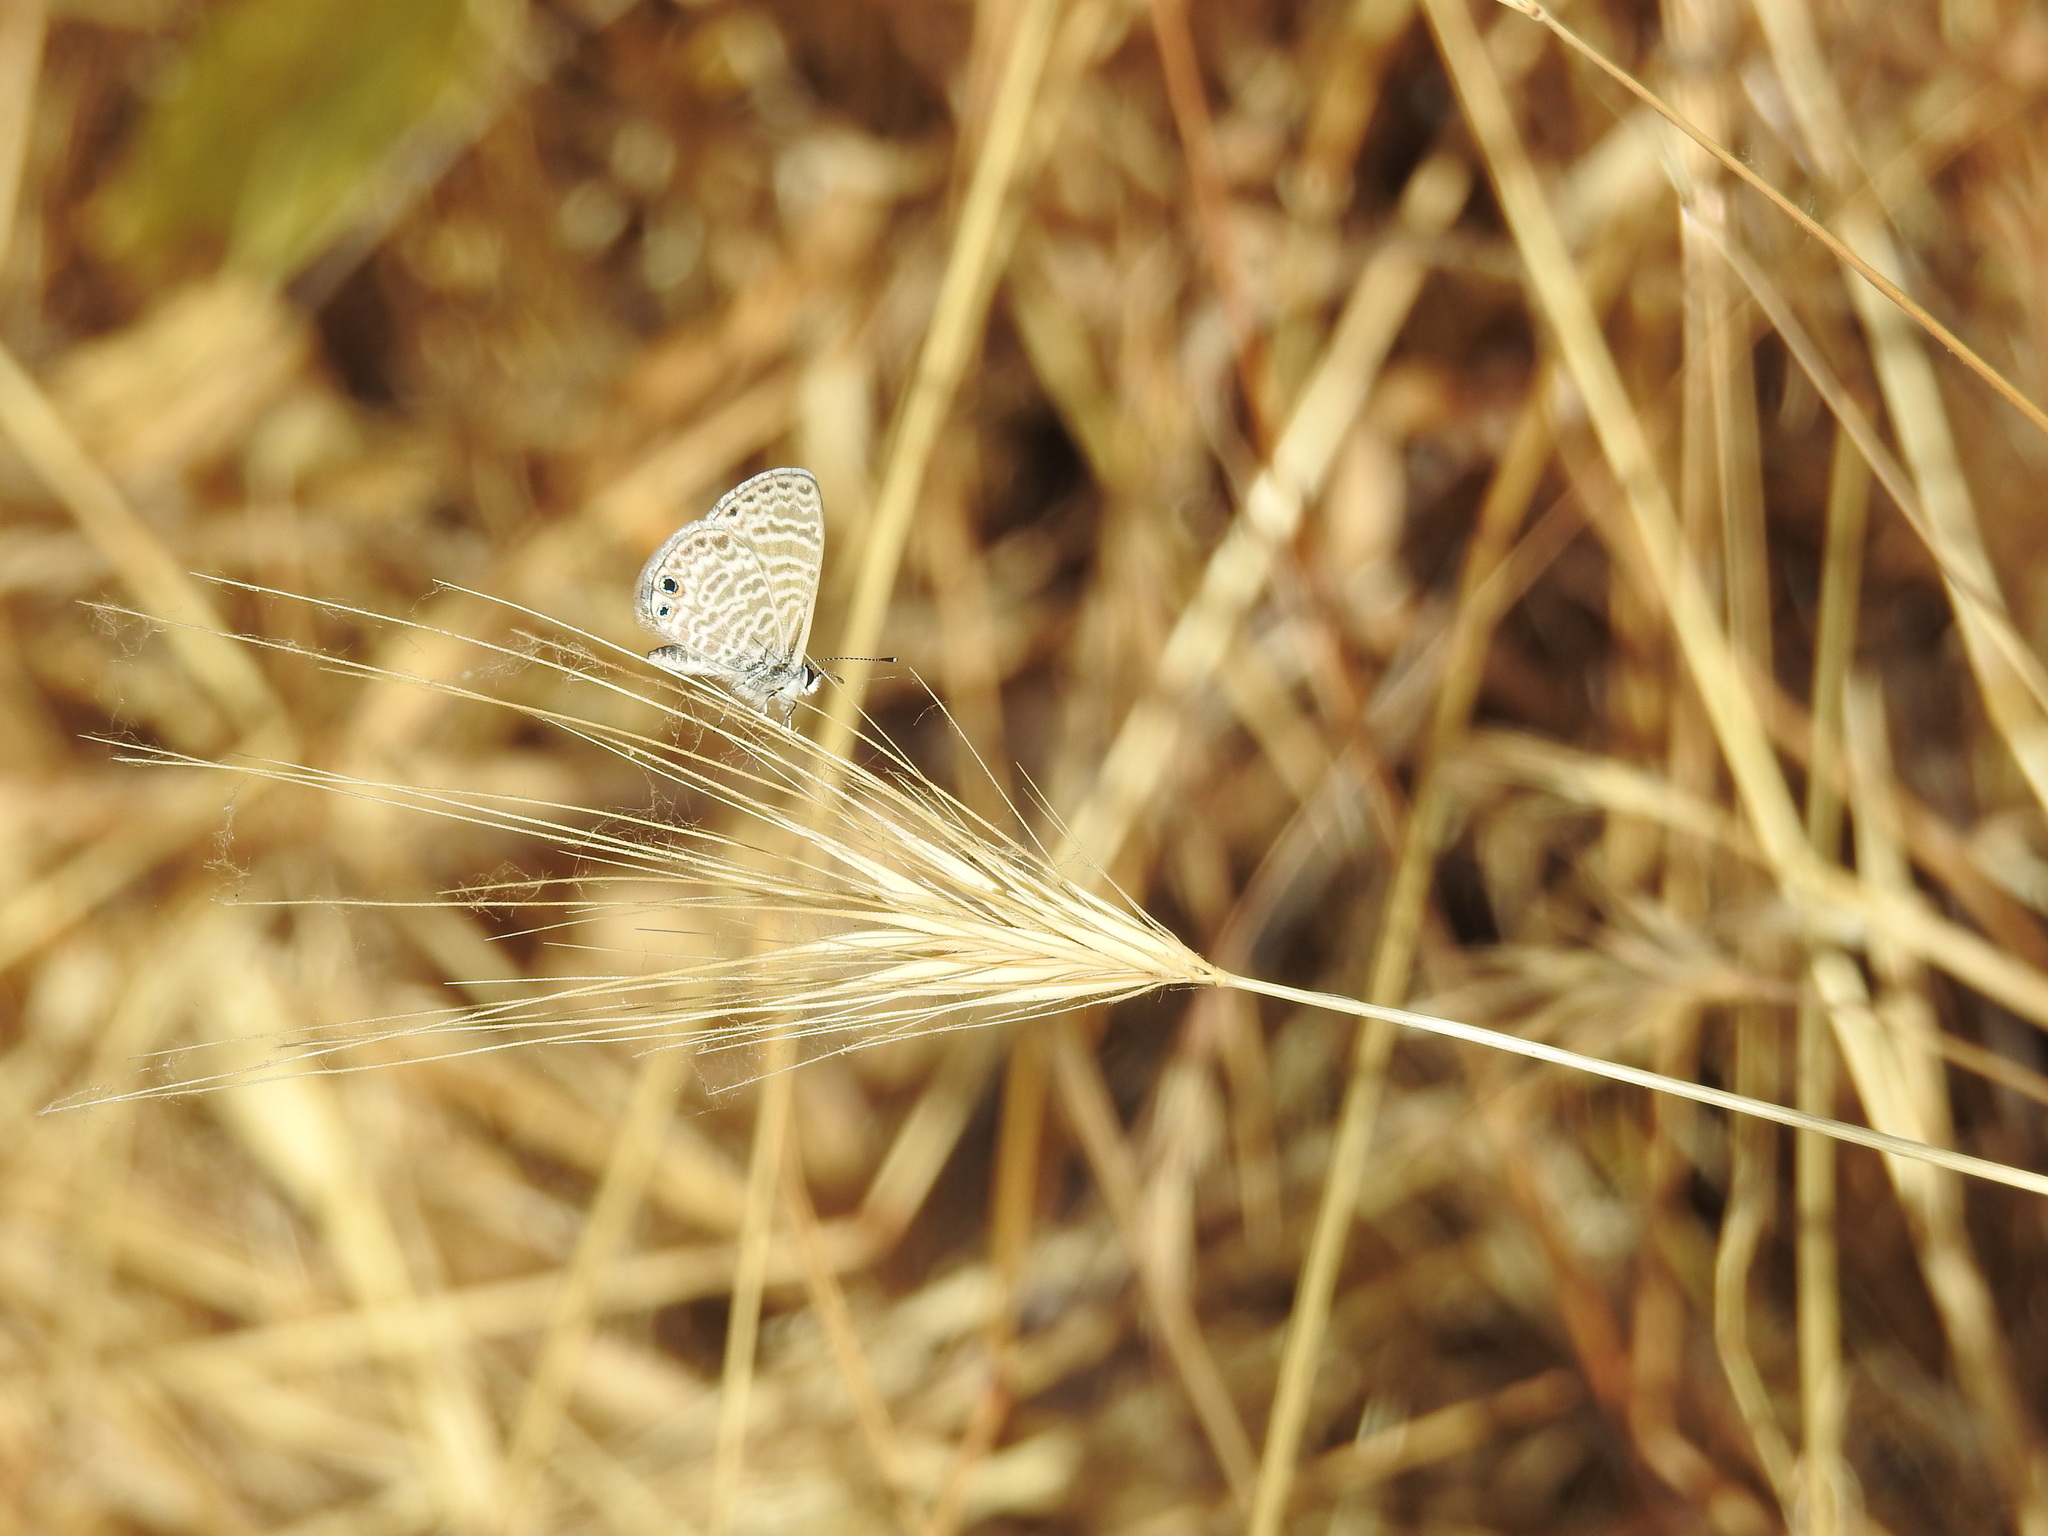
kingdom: Animalia
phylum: Arthropoda
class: Insecta
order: Lepidoptera
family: Lycaenidae
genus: Leptotes
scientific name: Leptotes marina
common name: Marine blue
